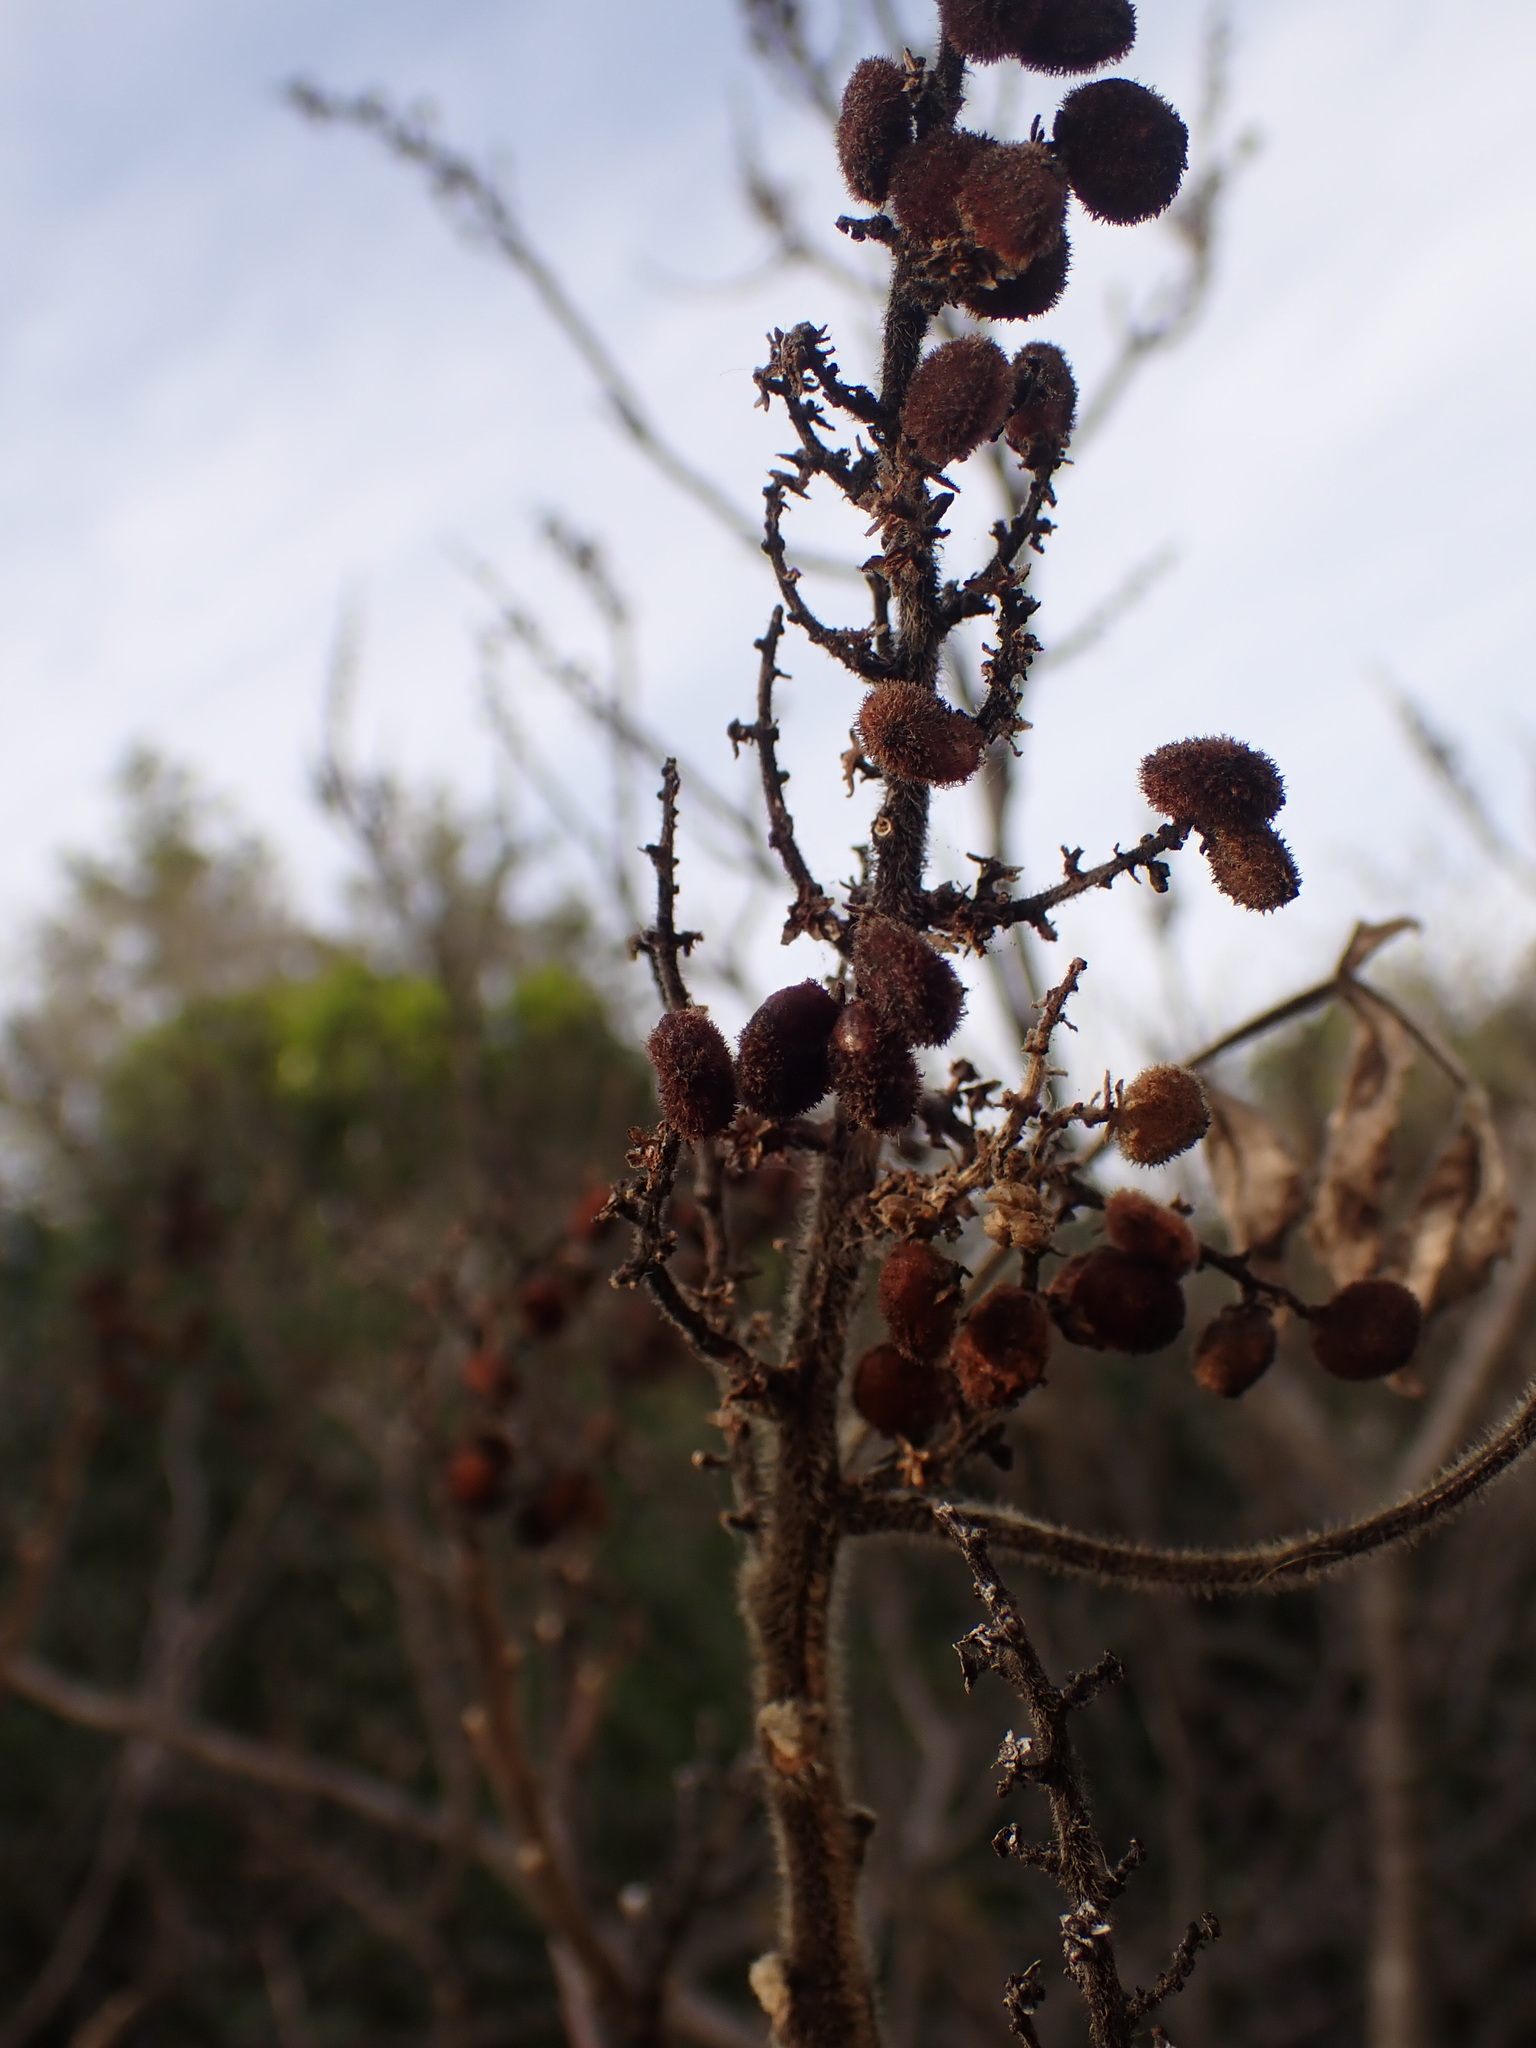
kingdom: Plantae
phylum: Tracheophyta
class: Magnoliopsida
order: Sapindales
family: Anacardiaceae
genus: Rhus
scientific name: Rhus coriaria
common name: Tanner's sumach
